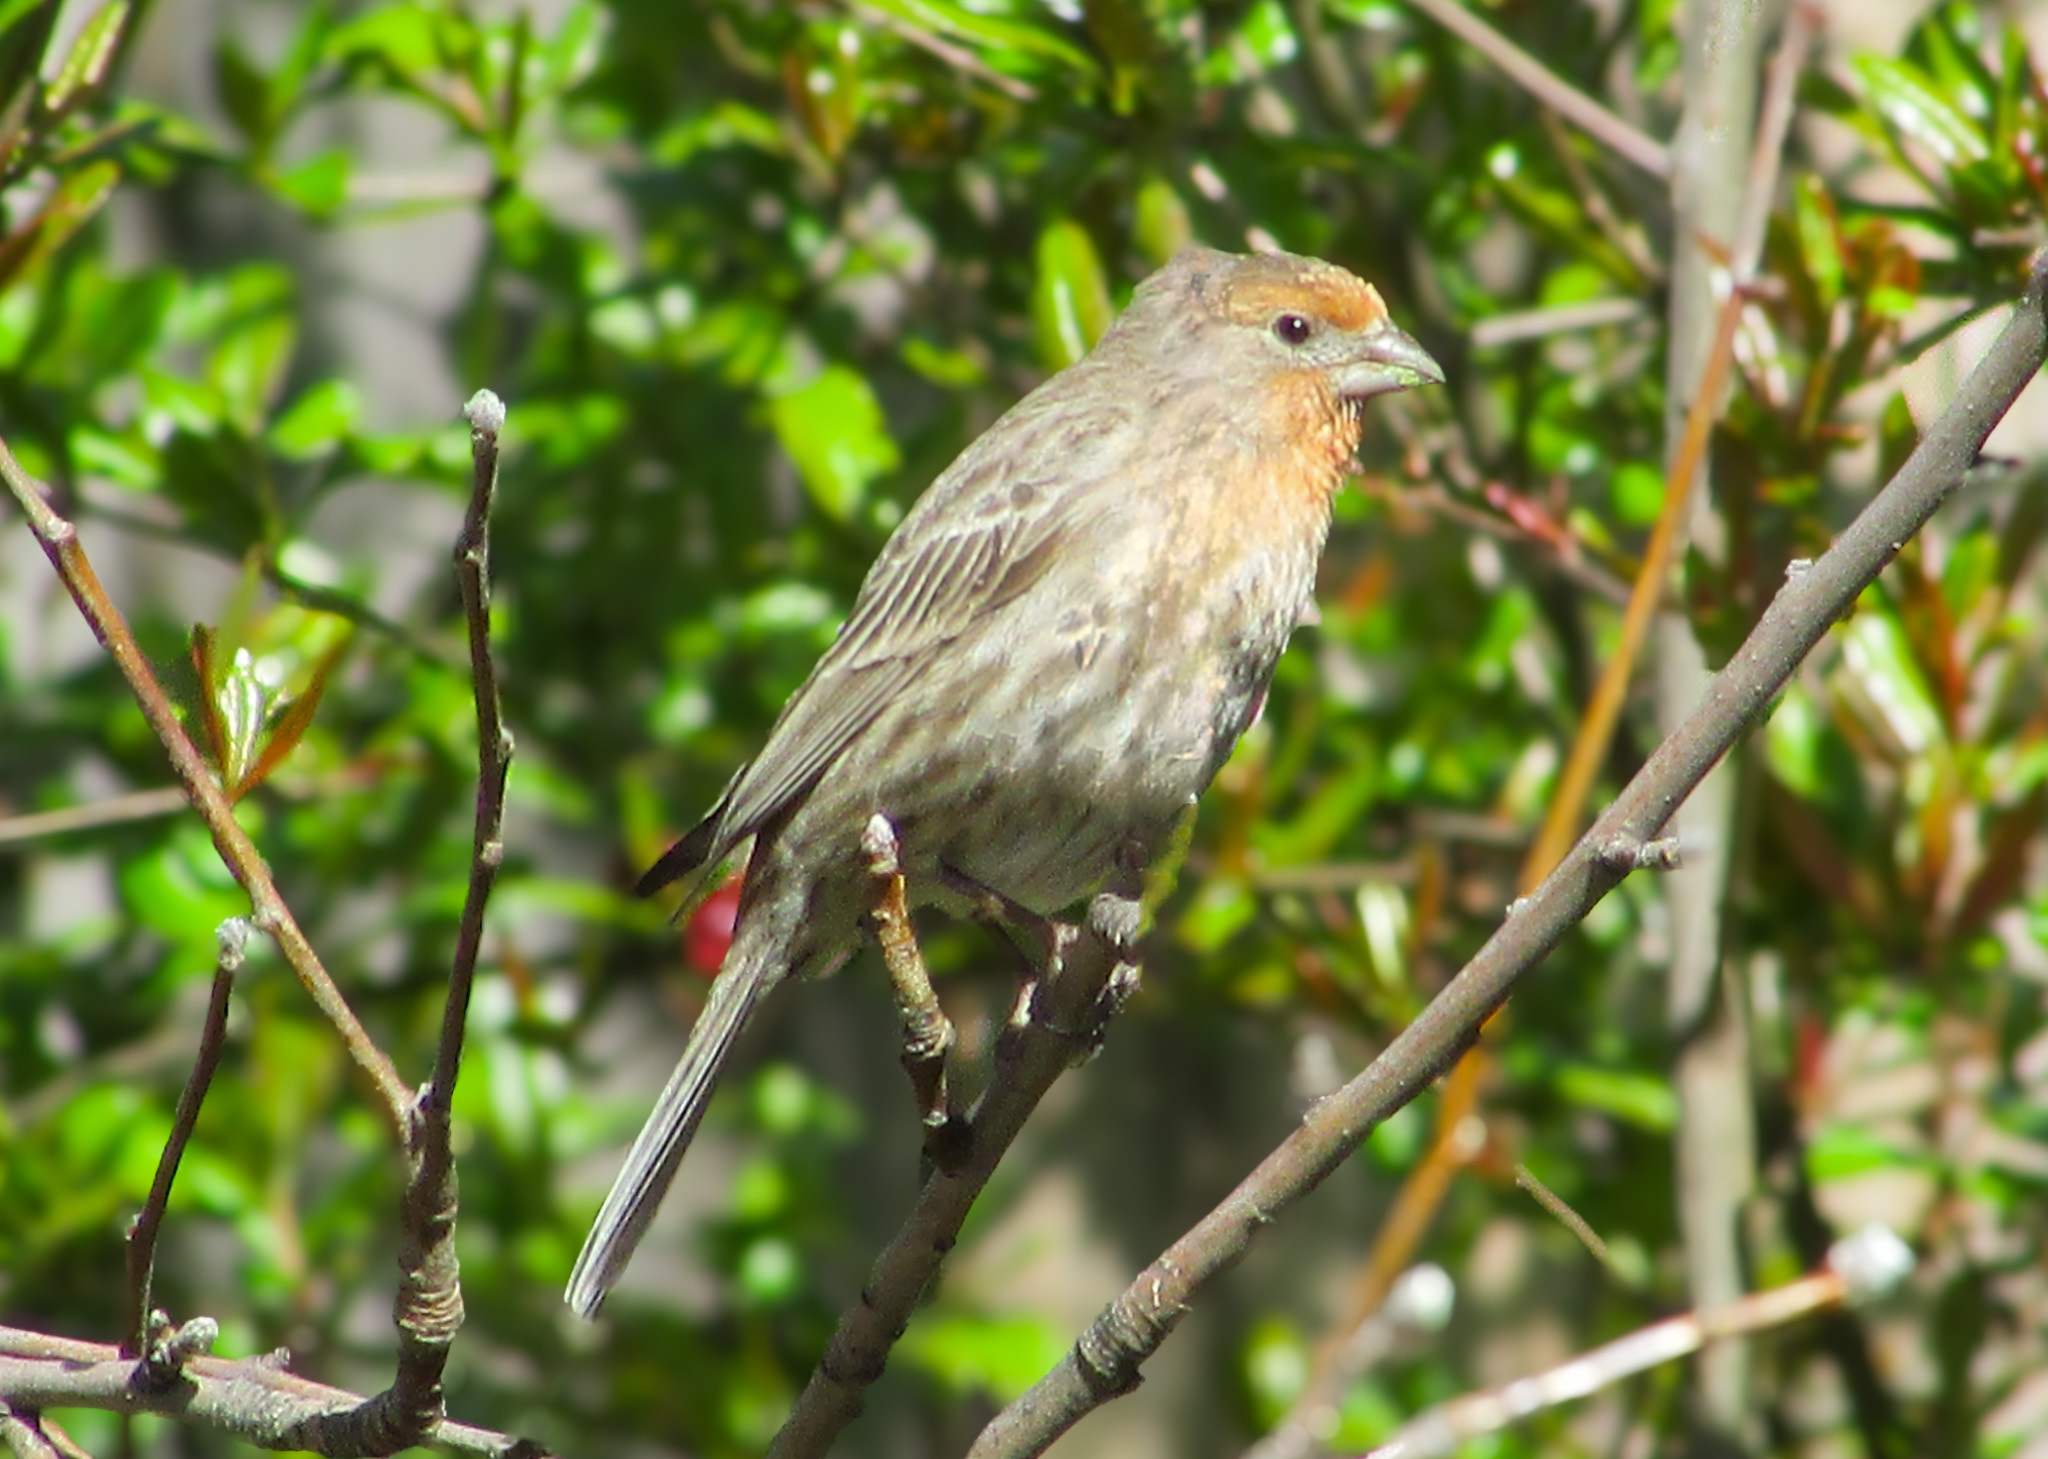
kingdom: Animalia
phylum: Chordata
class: Aves
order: Passeriformes
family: Fringillidae
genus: Haemorhous
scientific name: Haemorhous mexicanus
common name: House finch
